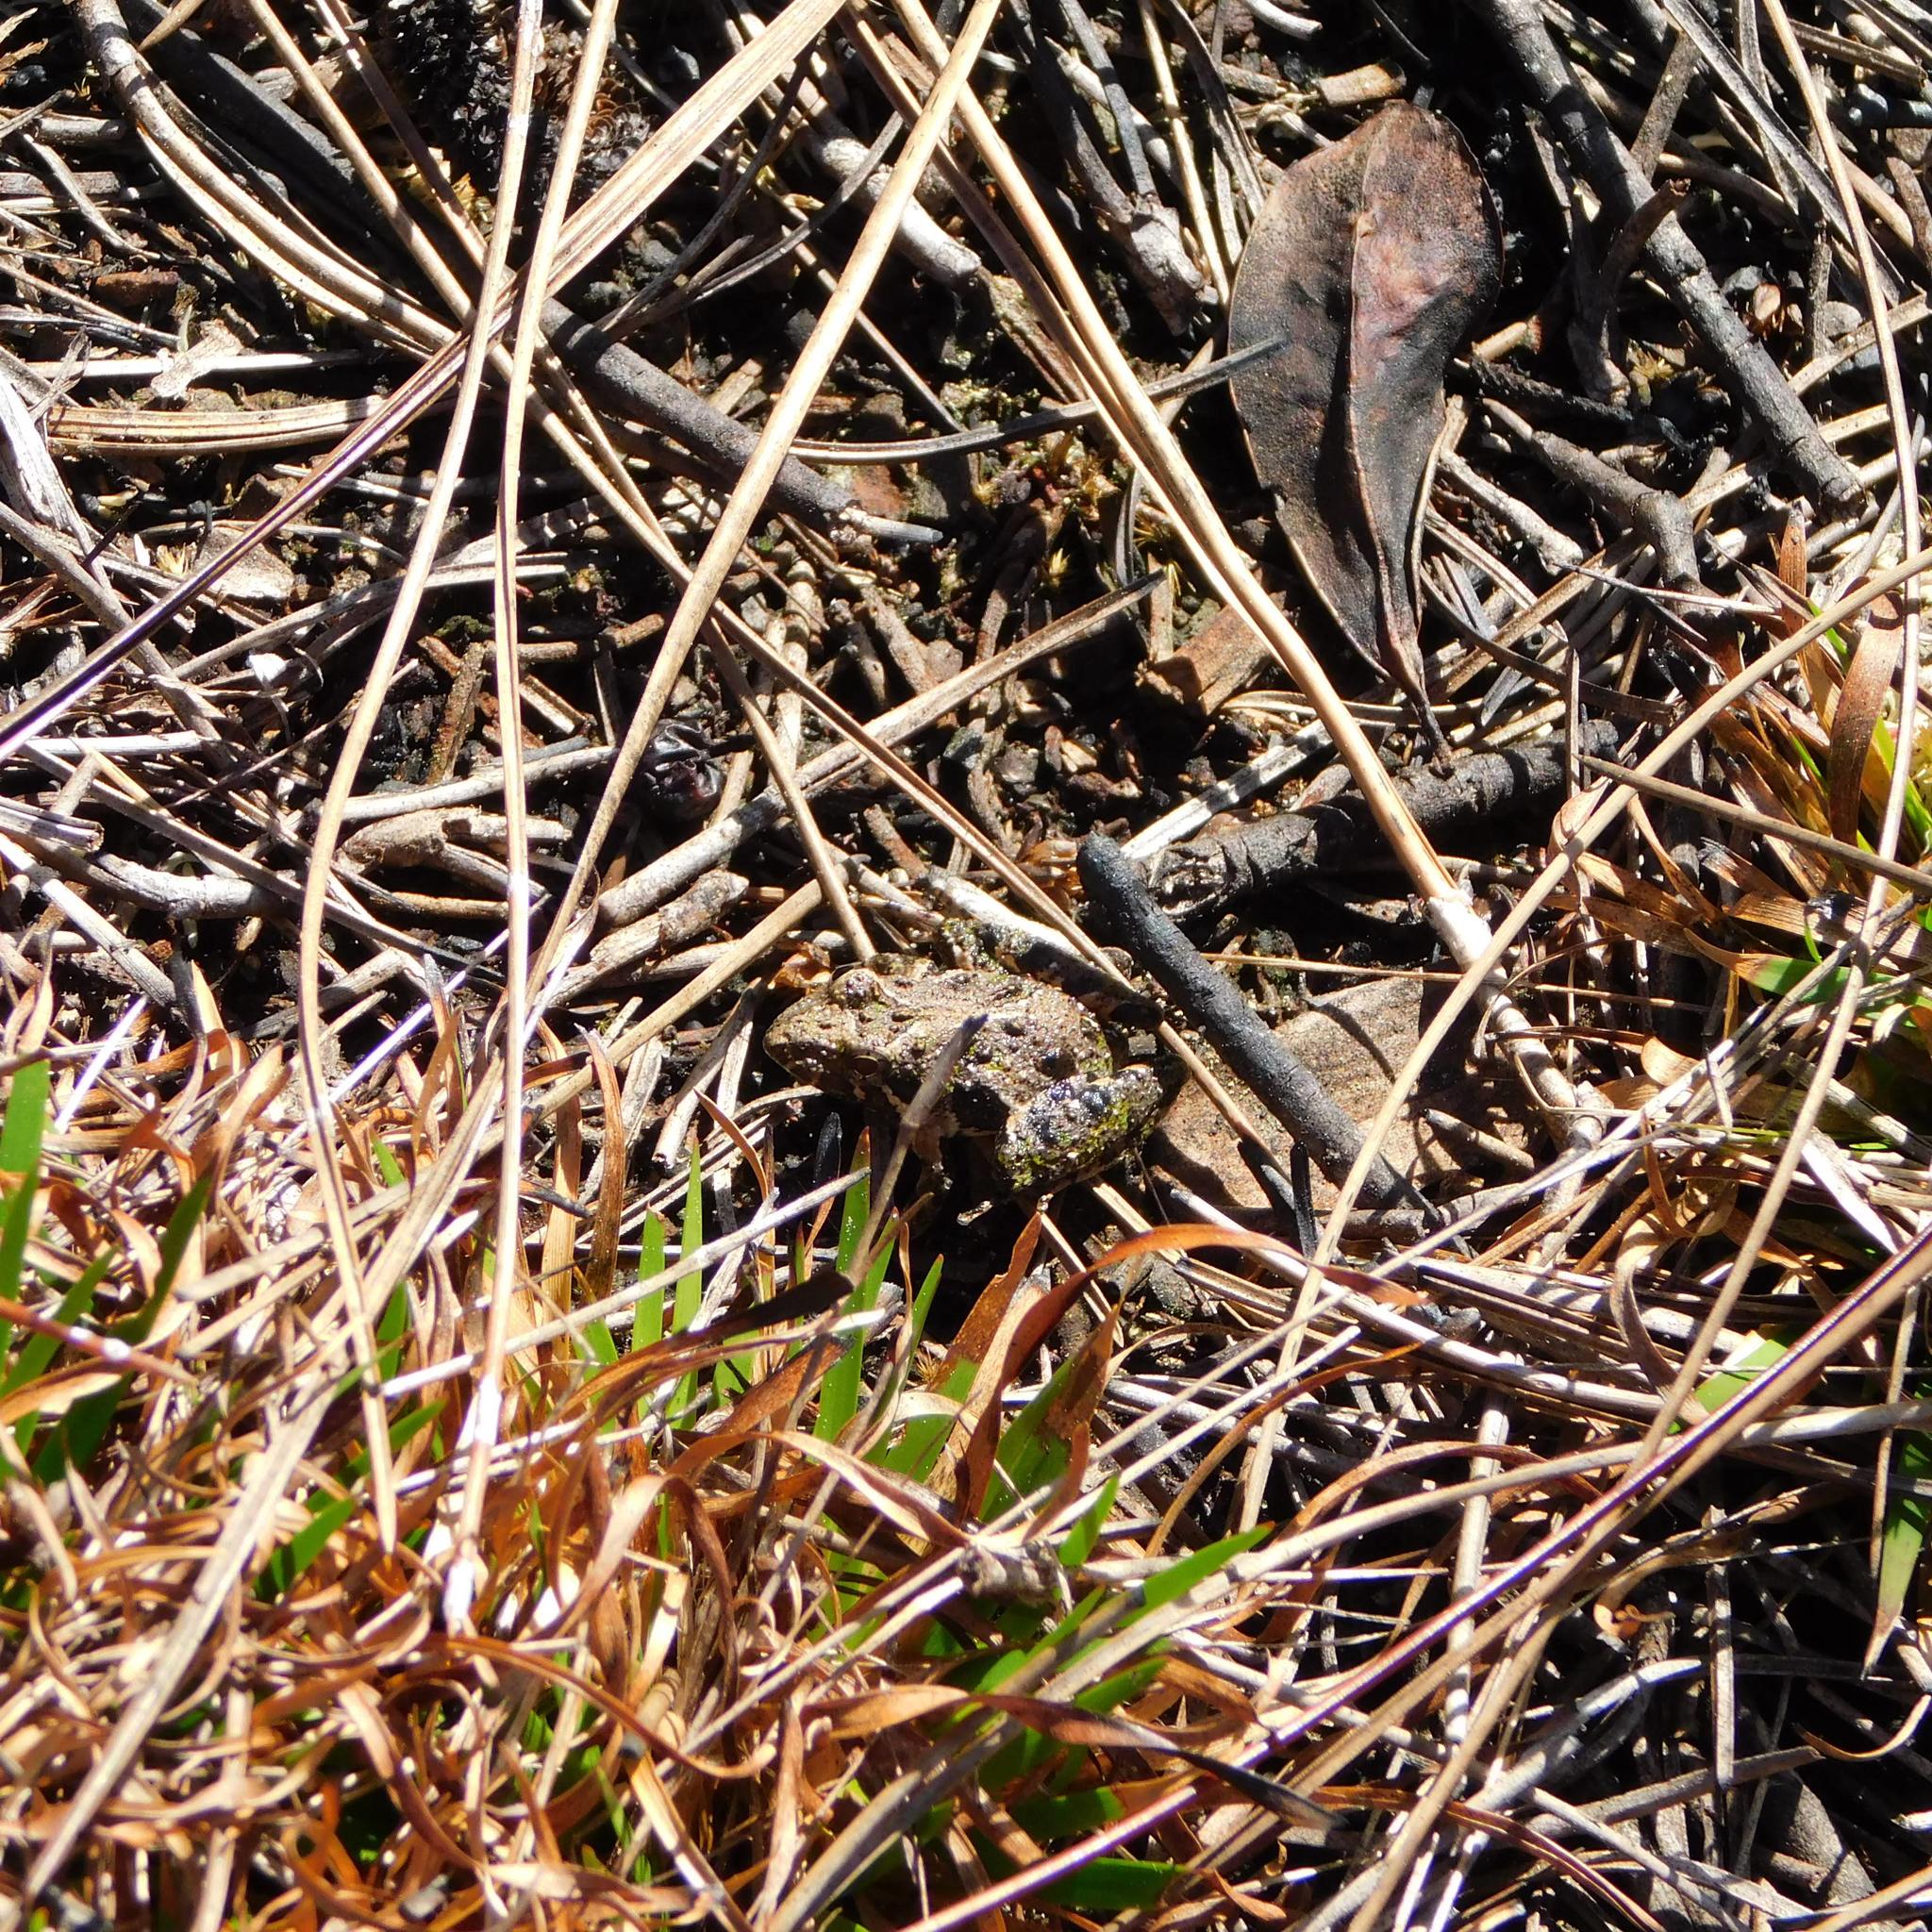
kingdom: Animalia
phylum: Chordata
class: Amphibia
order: Anura
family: Hylidae
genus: Acris
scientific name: Acris gryllus
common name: Southern cricket frog
